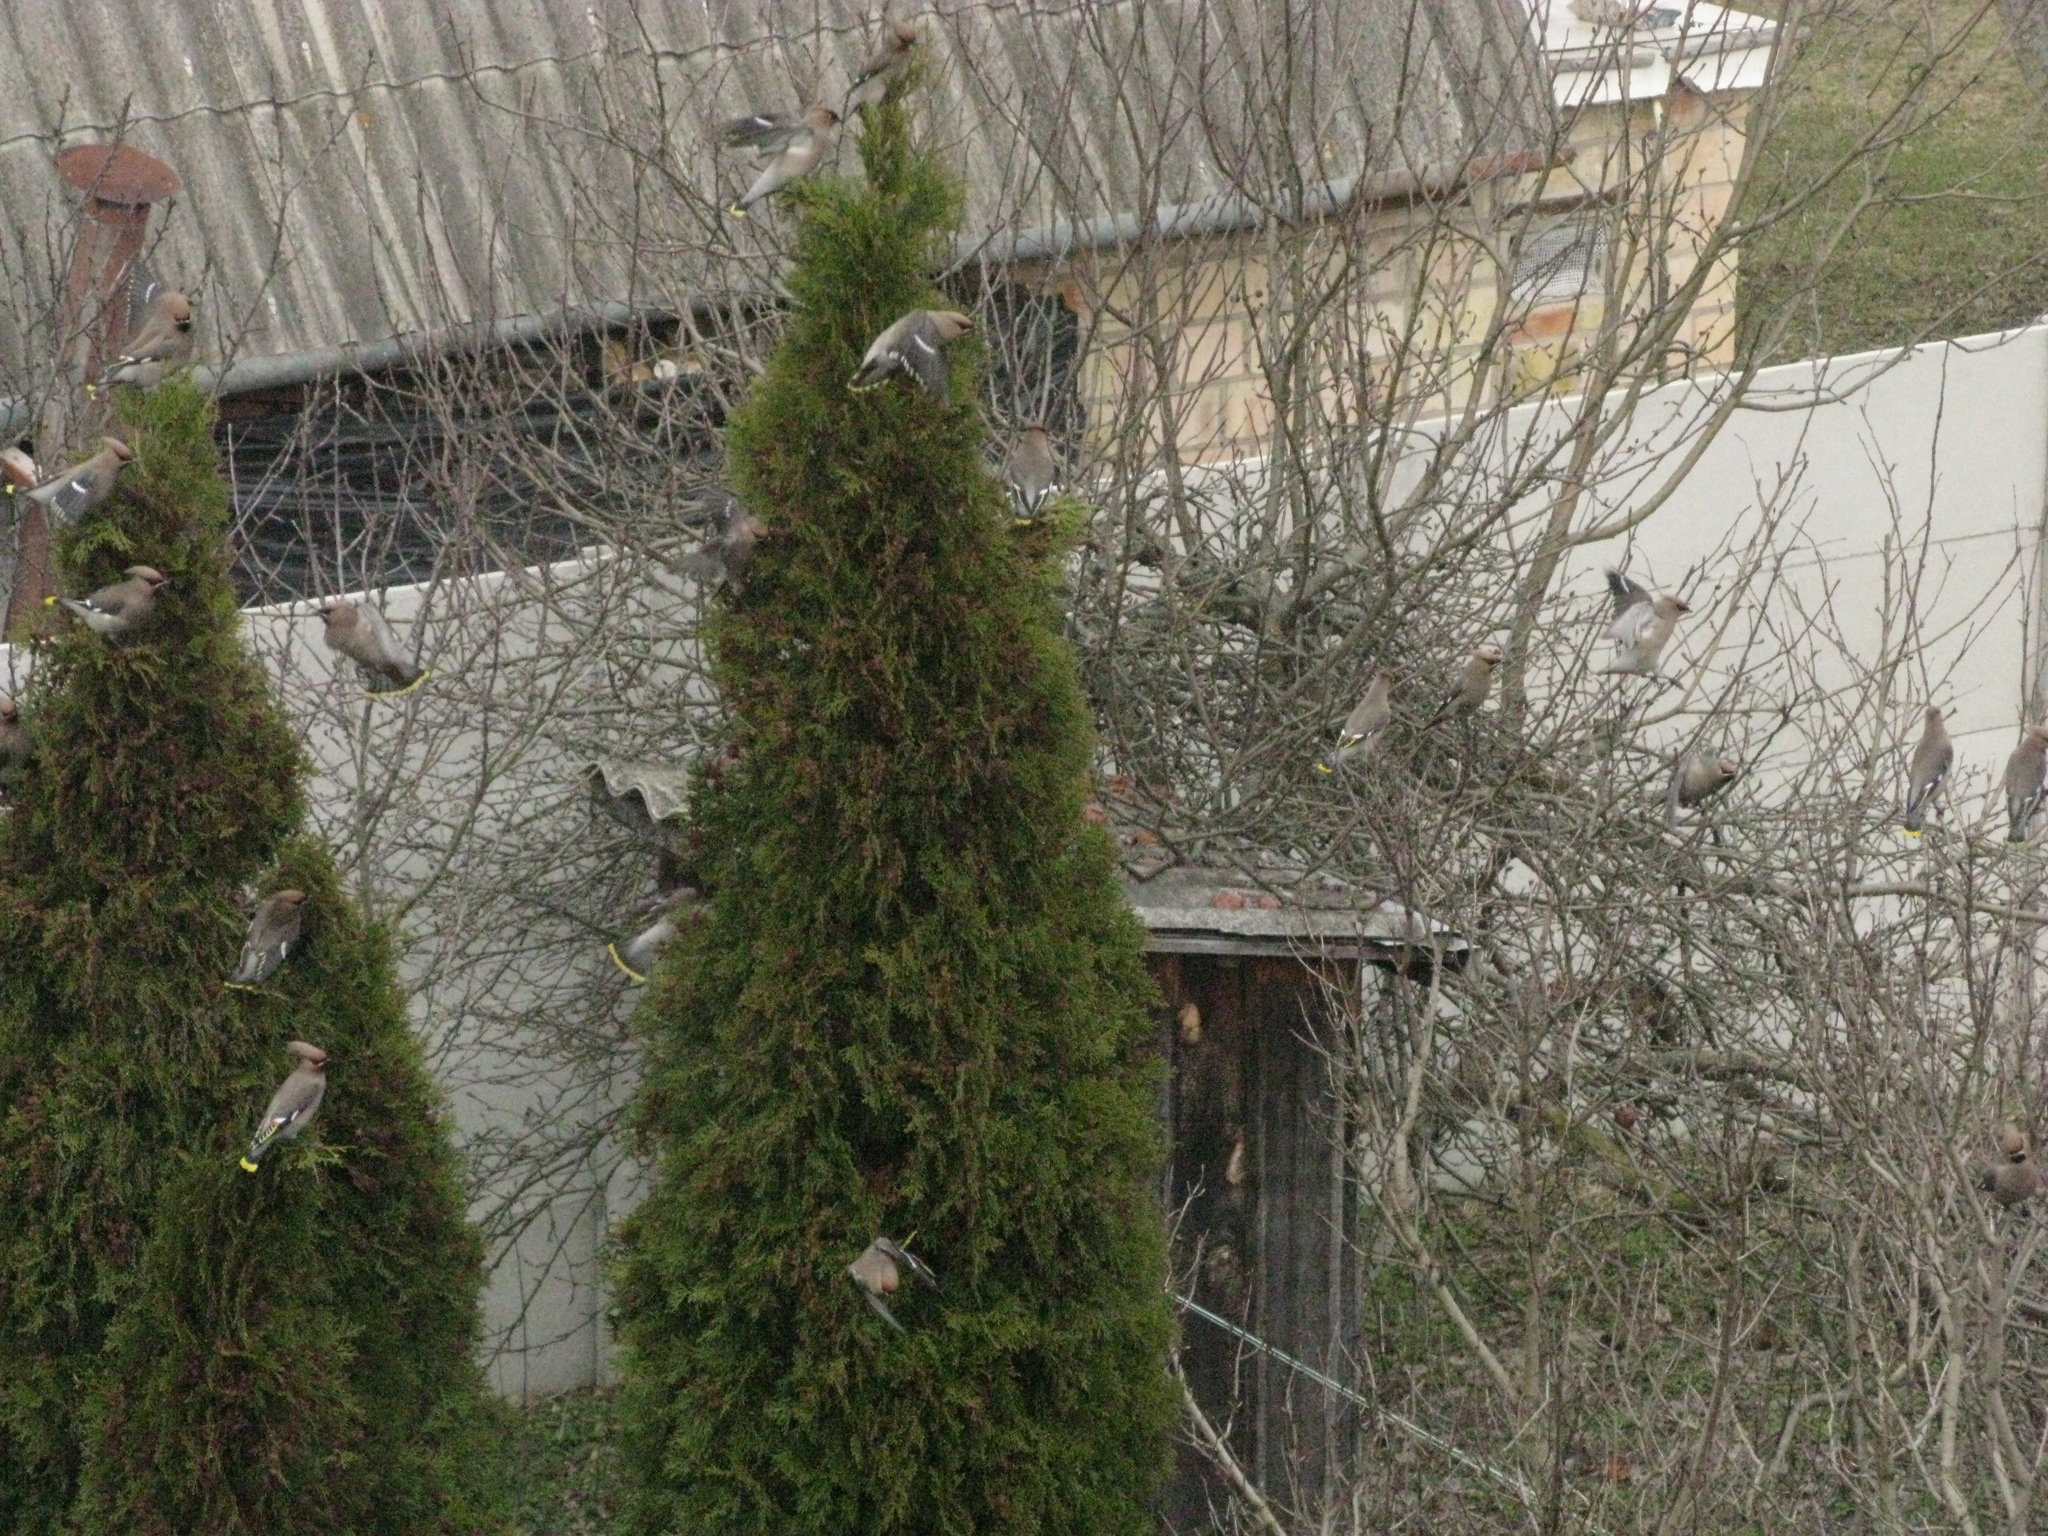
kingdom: Animalia
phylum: Chordata
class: Aves
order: Passeriformes
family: Bombycillidae
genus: Bombycilla
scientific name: Bombycilla garrulus
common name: Bohemian waxwing
